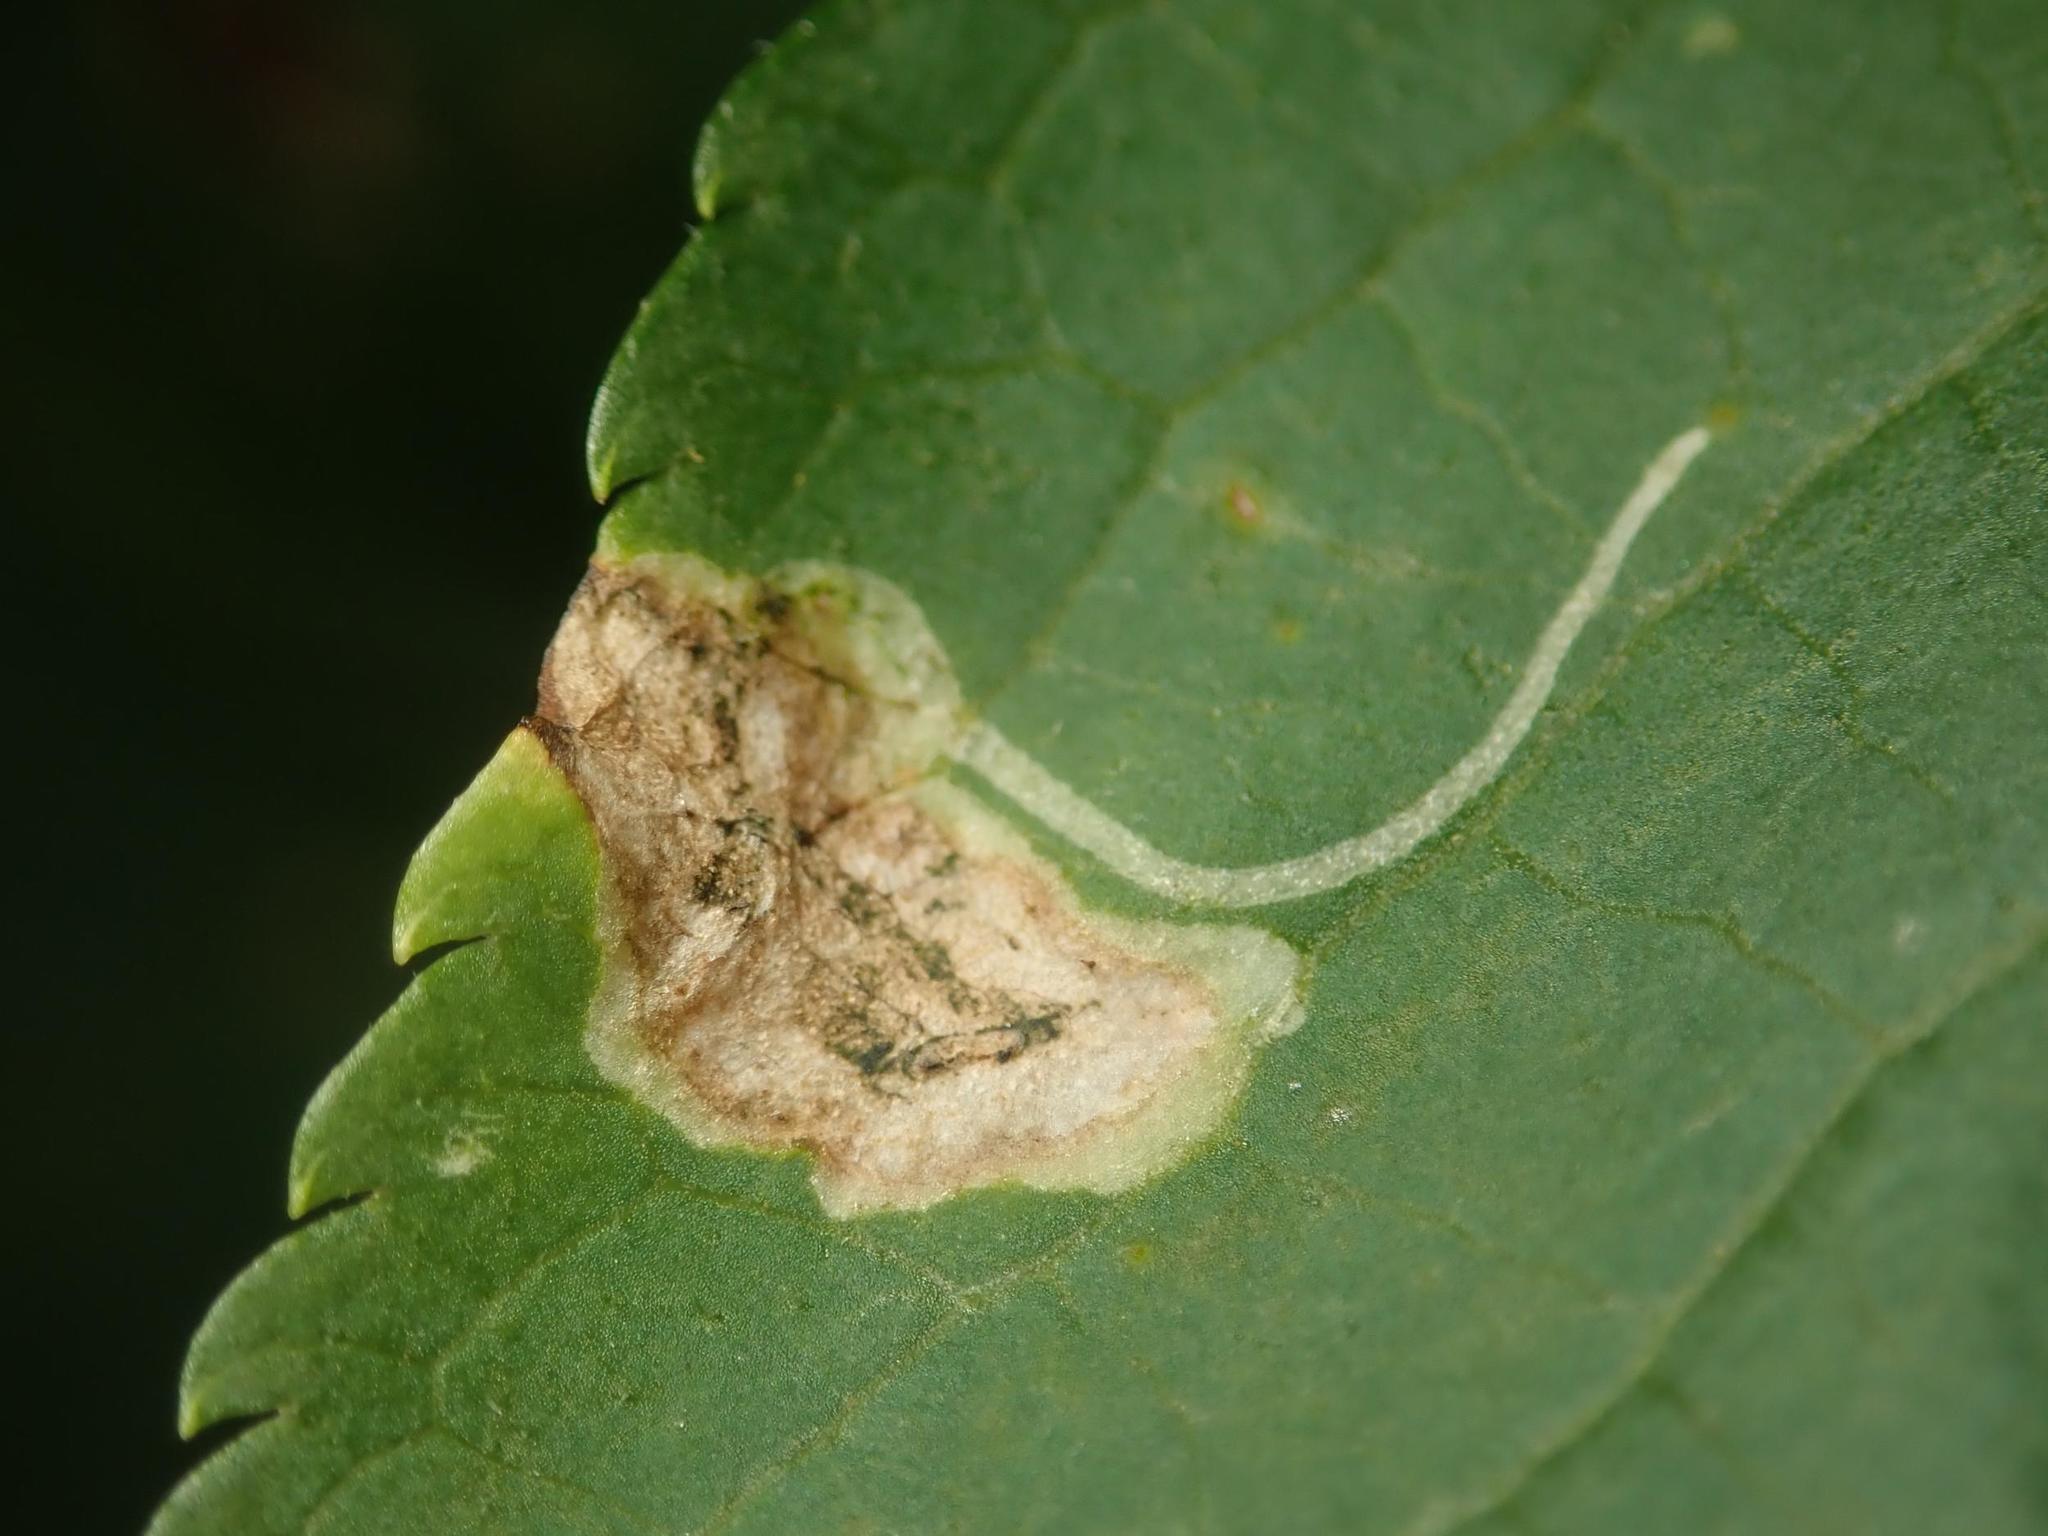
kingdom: Animalia
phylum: Arthropoda
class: Insecta
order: Diptera
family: Agromyzidae
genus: Liriomyza
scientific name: Liriomyza amoena
